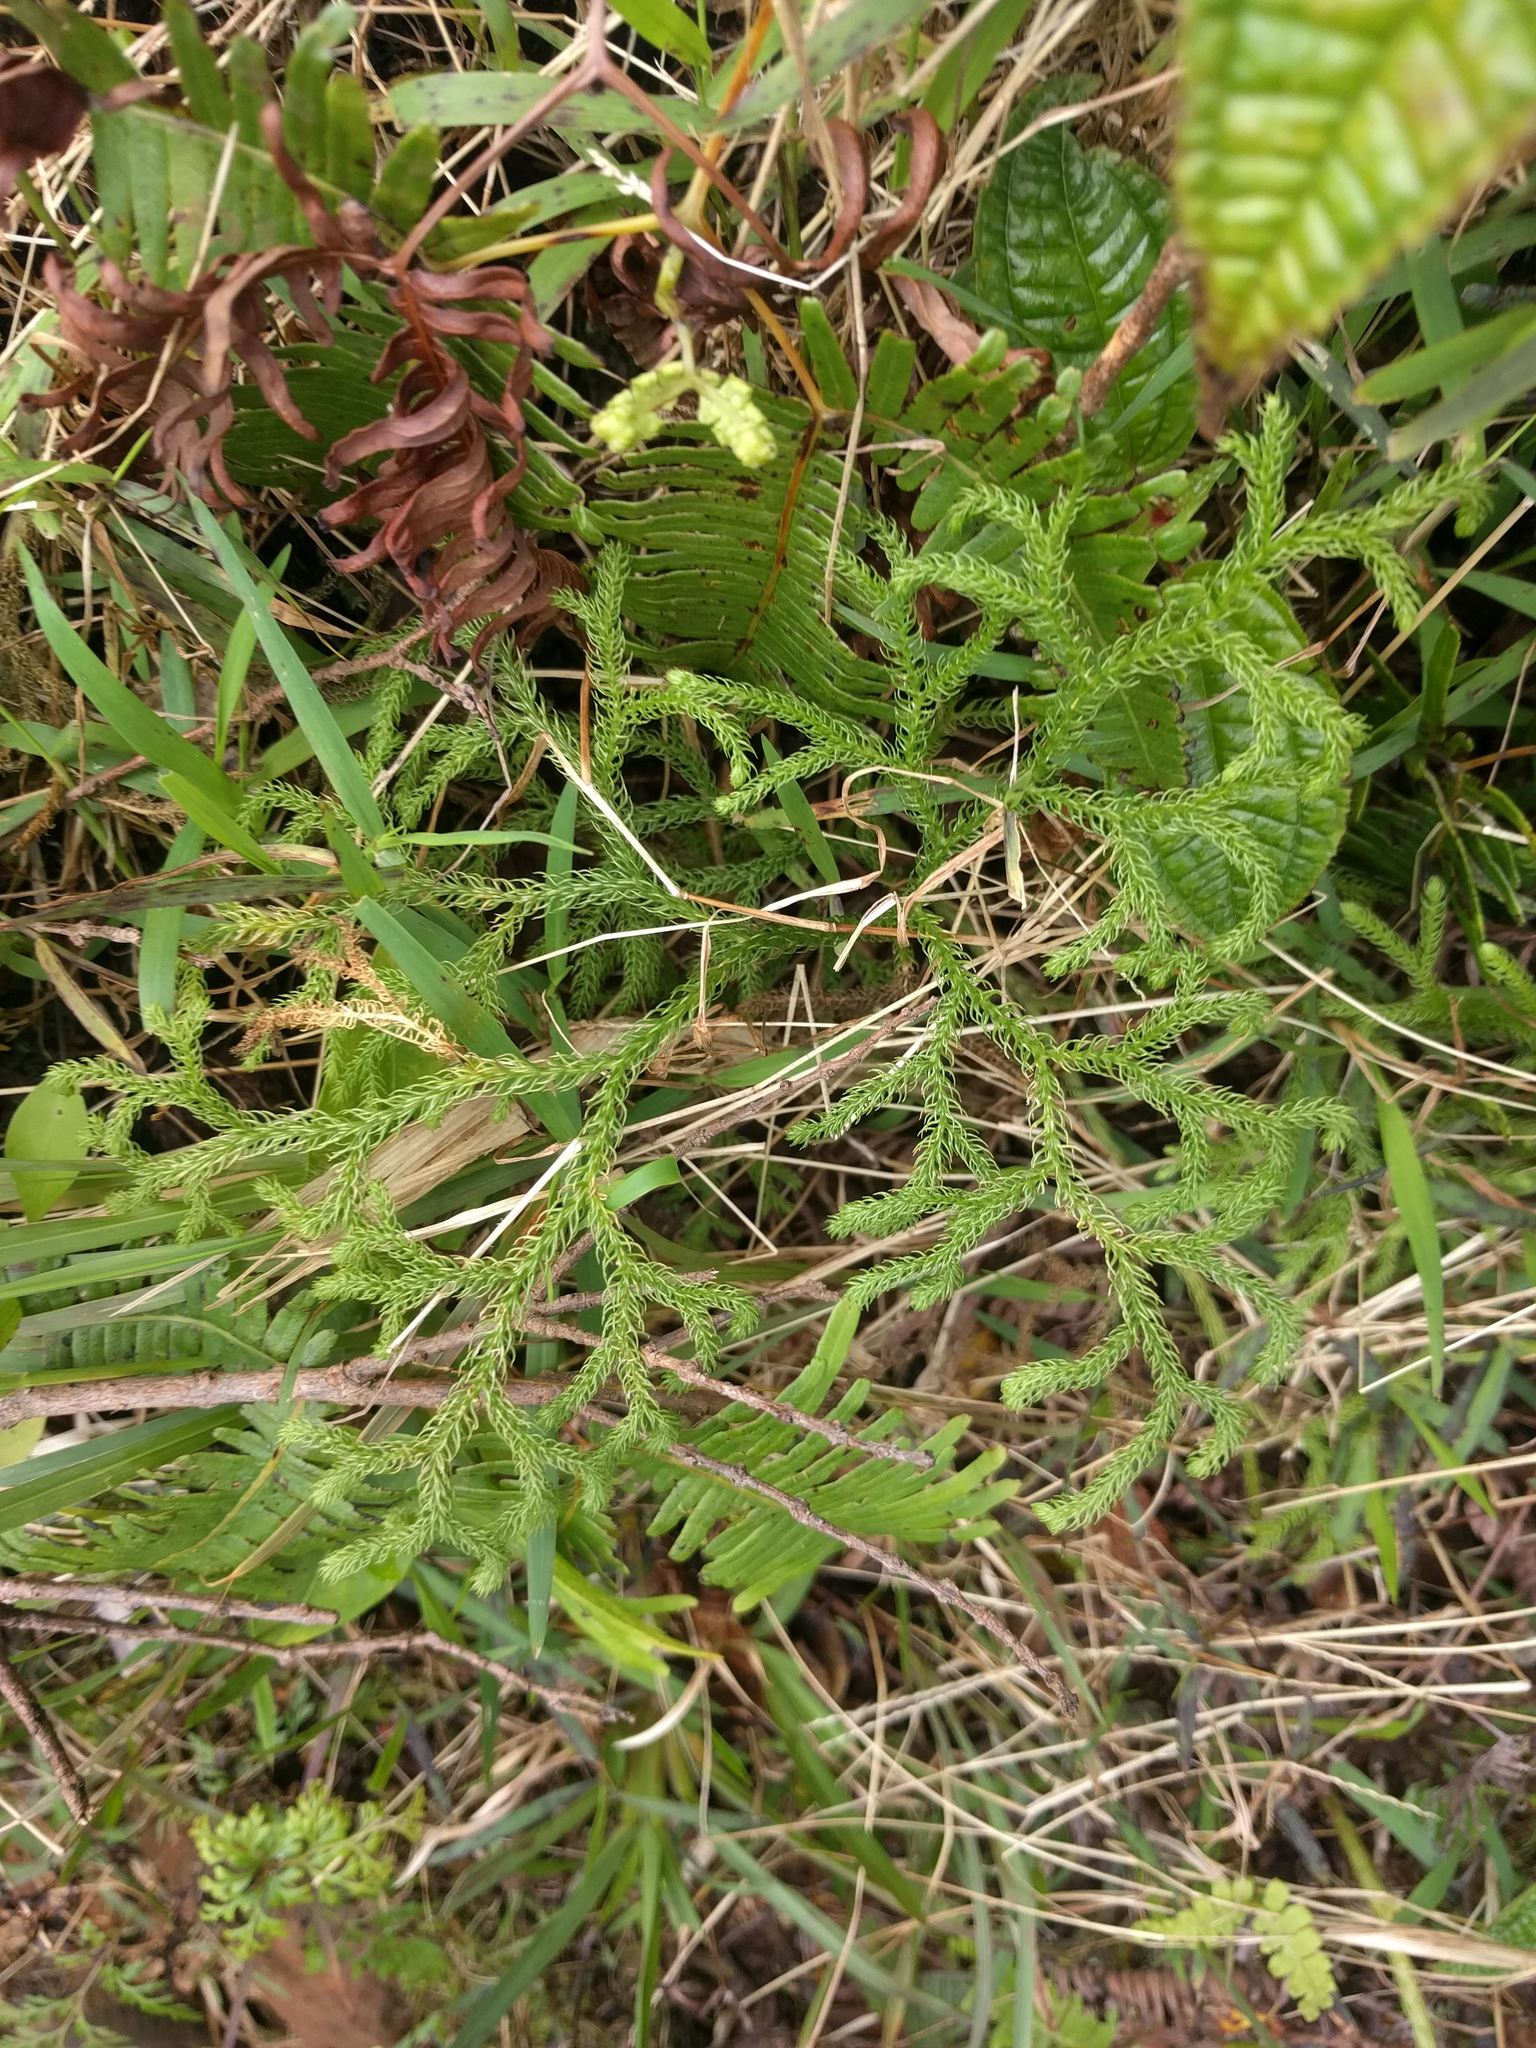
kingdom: Plantae
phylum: Tracheophyta
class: Lycopodiopsida
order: Lycopodiales
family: Lycopodiaceae
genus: Palhinhaea
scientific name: Palhinhaea cernua
